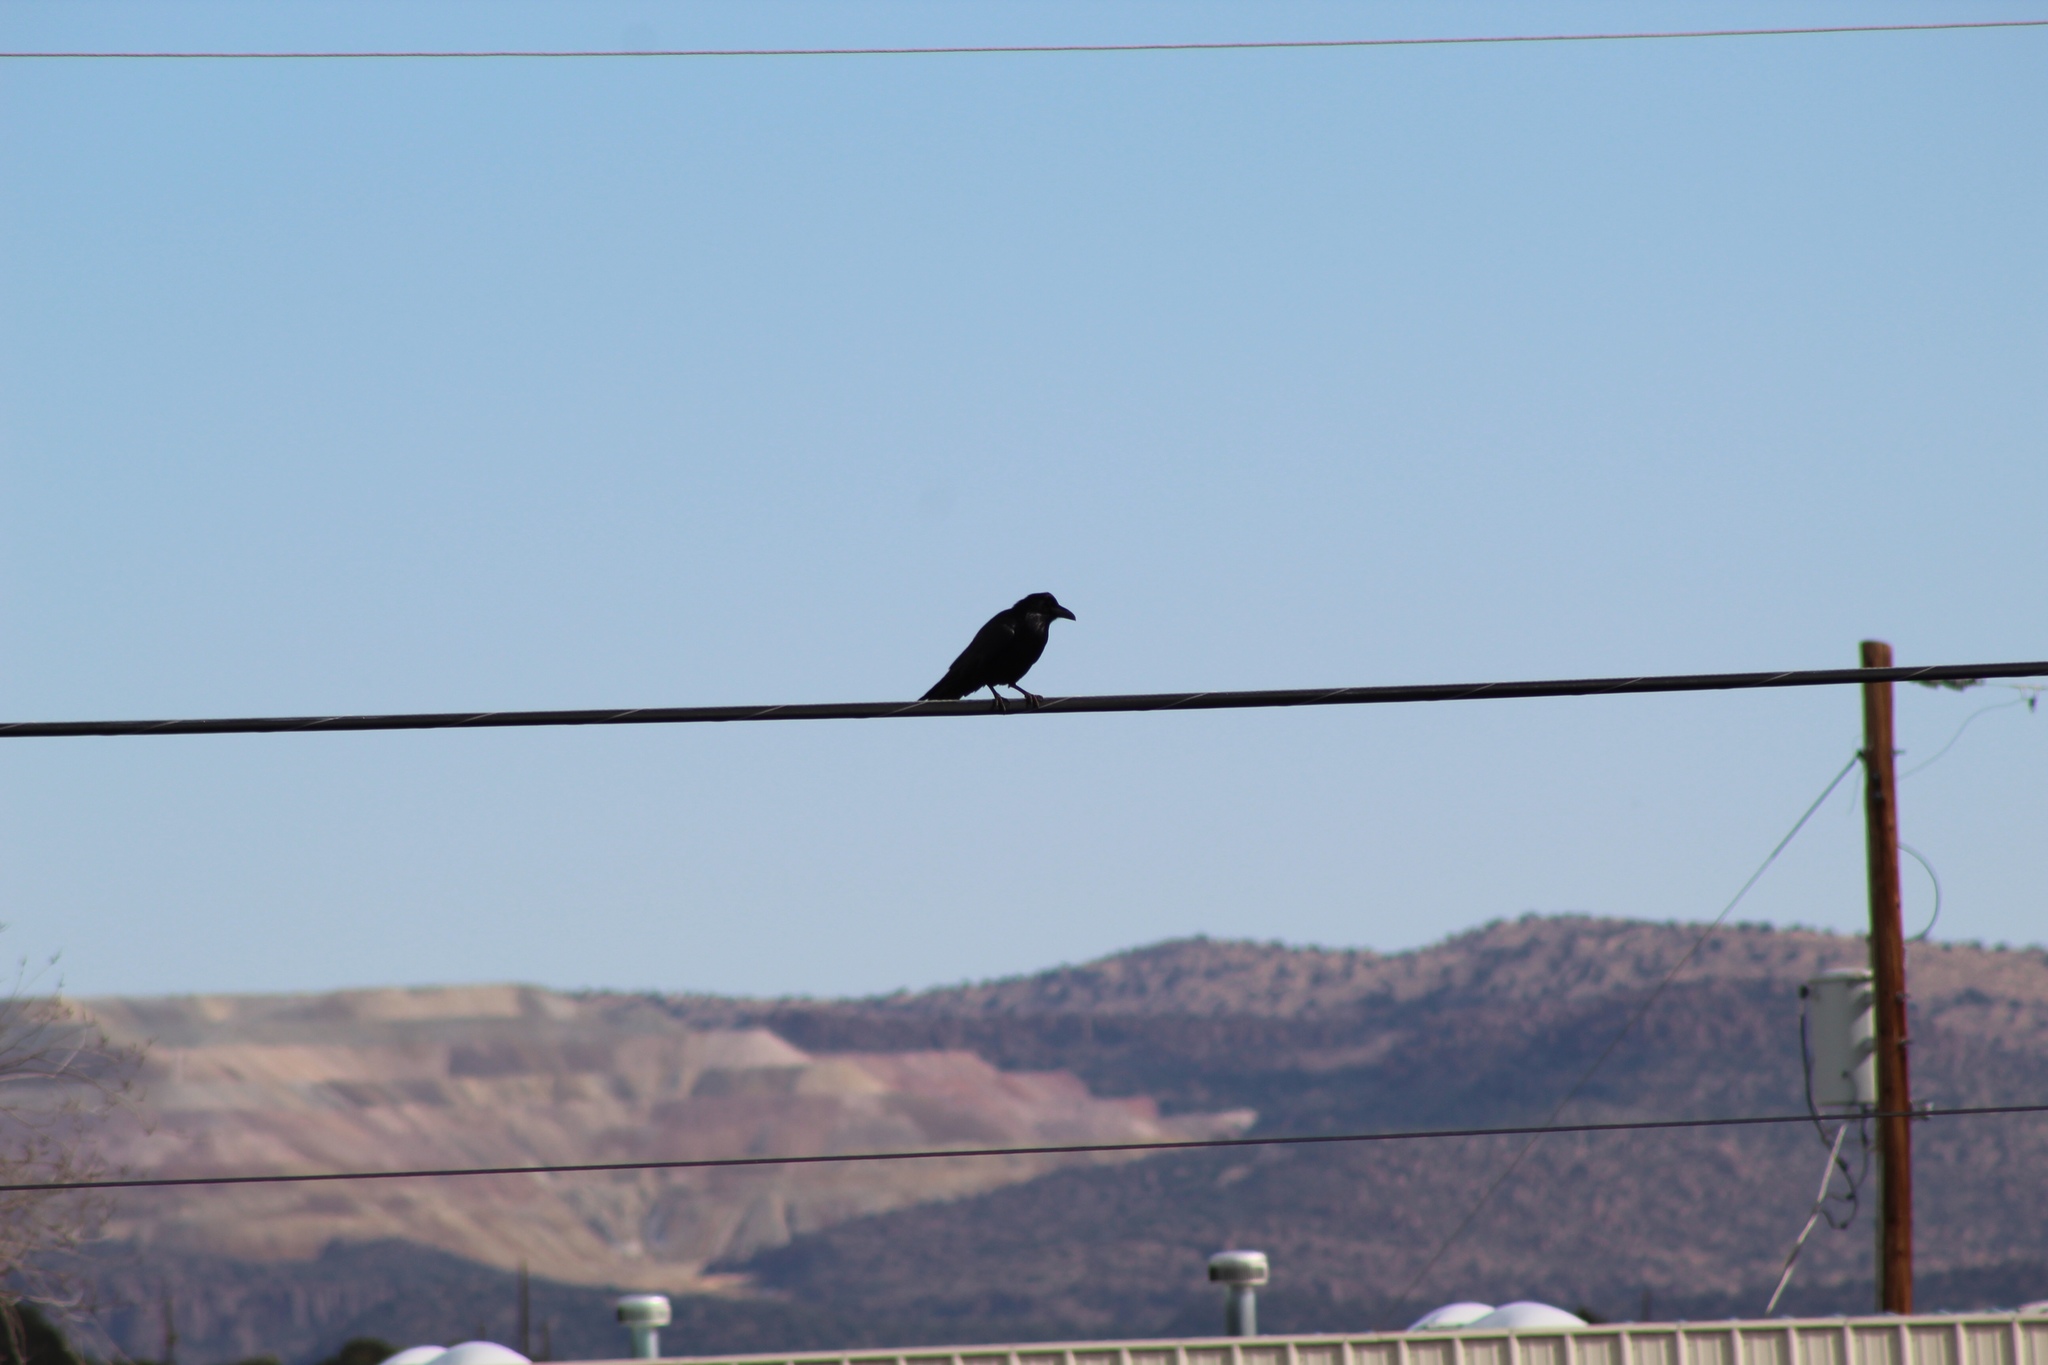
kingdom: Animalia
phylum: Chordata
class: Aves
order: Passeriformes
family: Corvidae
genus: Corvus
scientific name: Corvus
